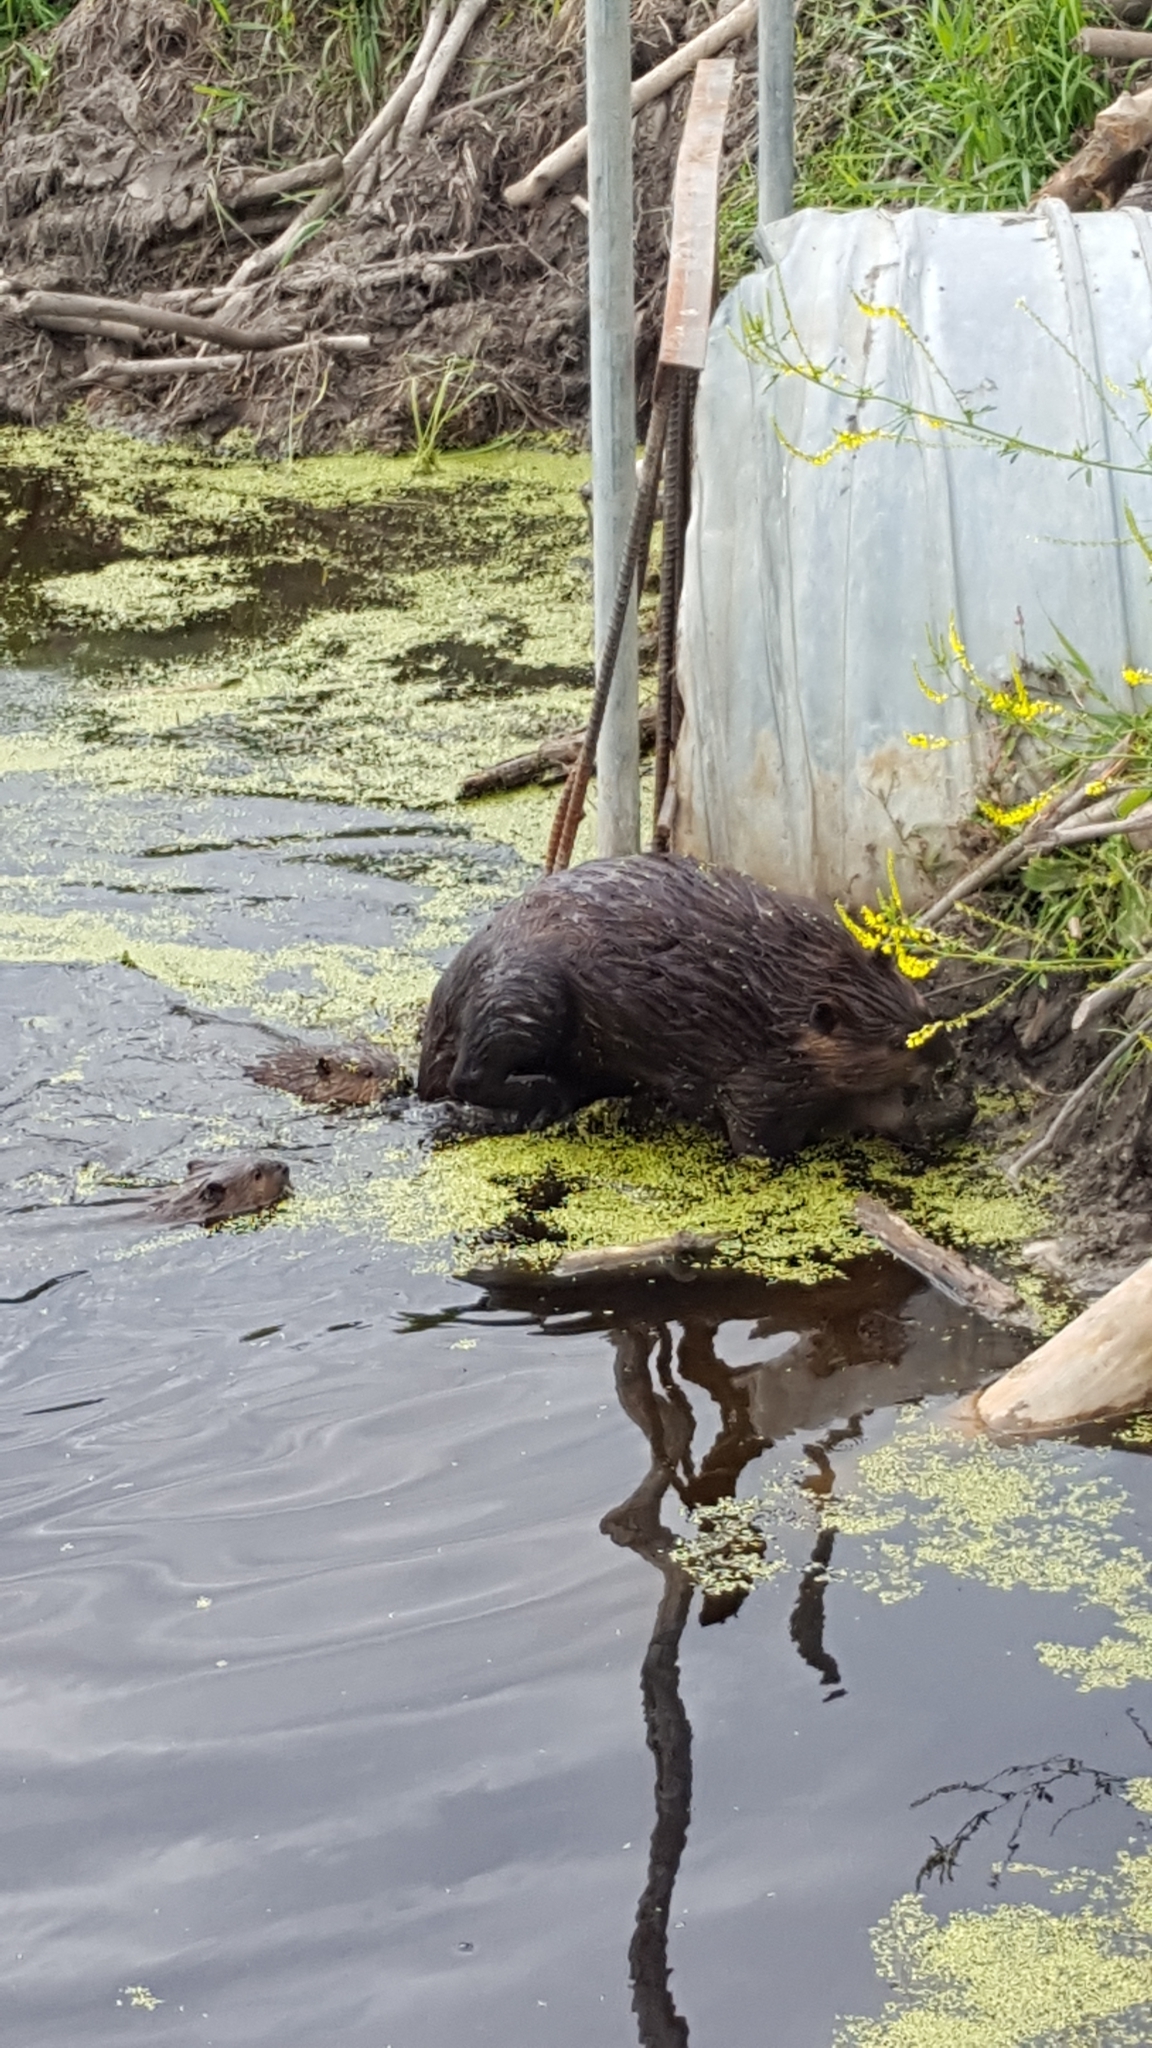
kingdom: Animalia
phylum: Chordata
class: Mammalia
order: Rodentia
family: Castoridae
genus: Castor
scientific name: Castor canadensis
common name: American beaver
